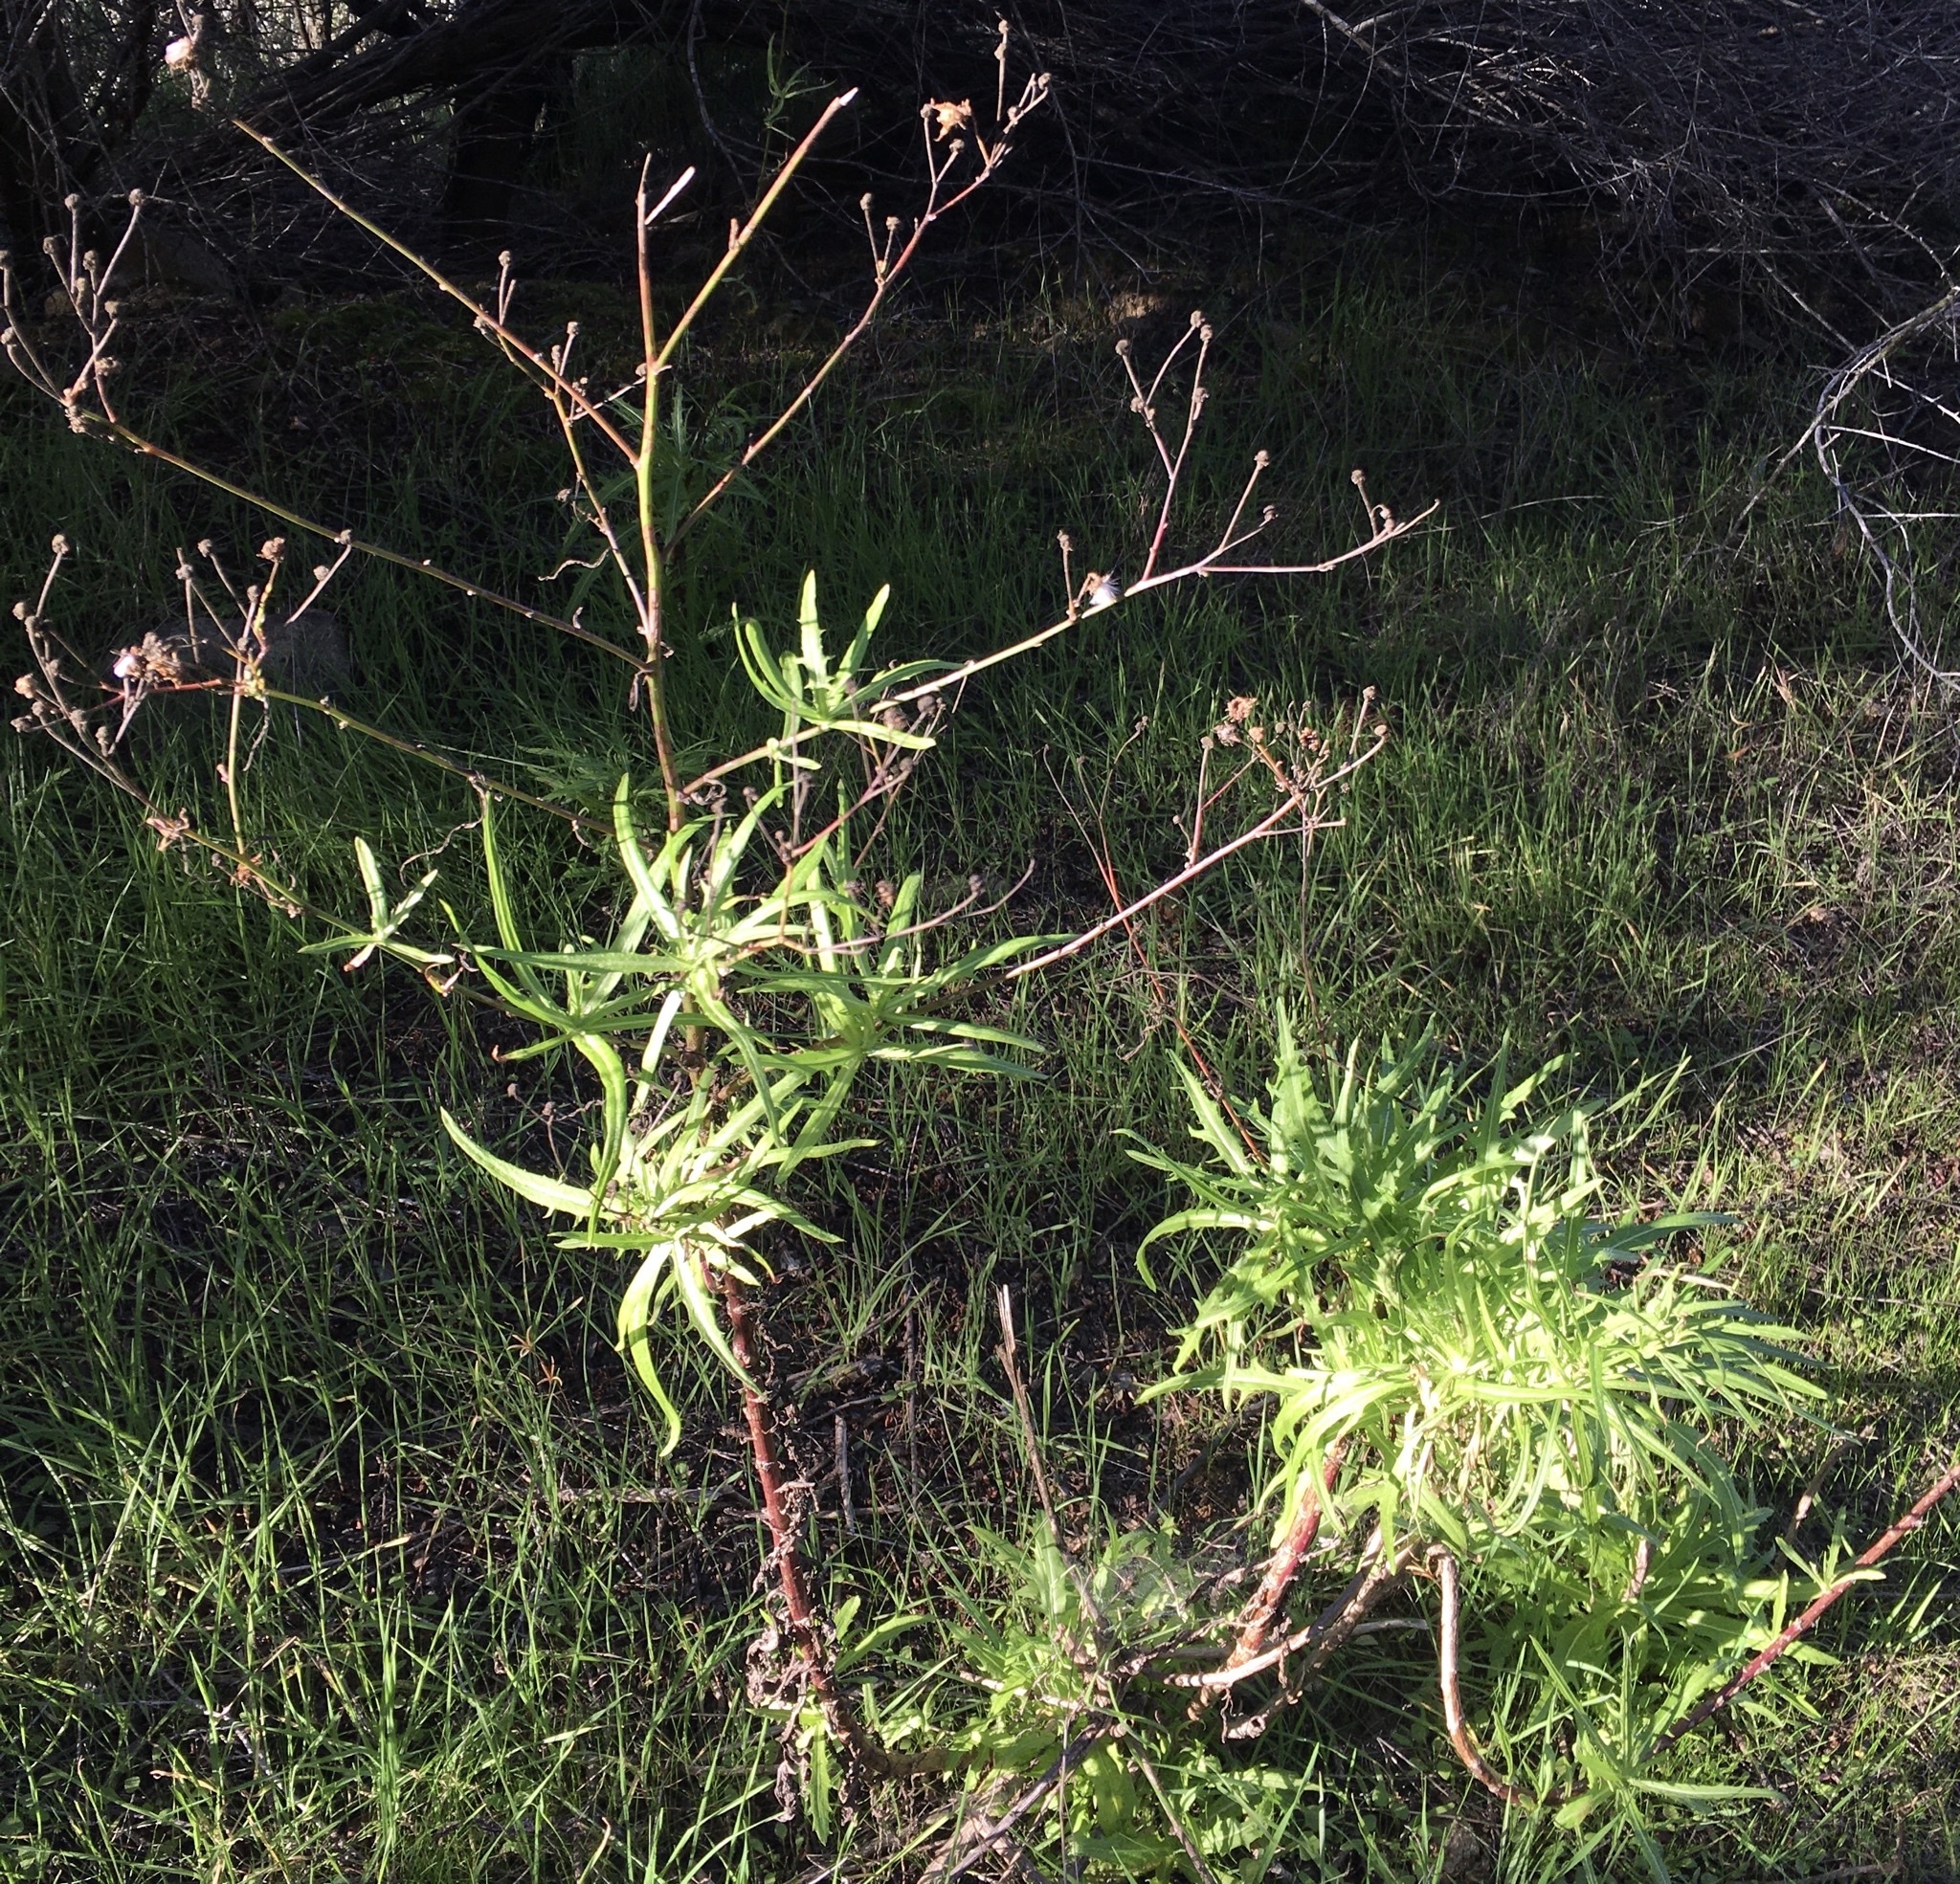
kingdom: Plantae
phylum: Tracheophyta
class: Magnoliopsida
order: Asterales
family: Asteraceae
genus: Malacothrix
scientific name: Malacothrix saxatilis
